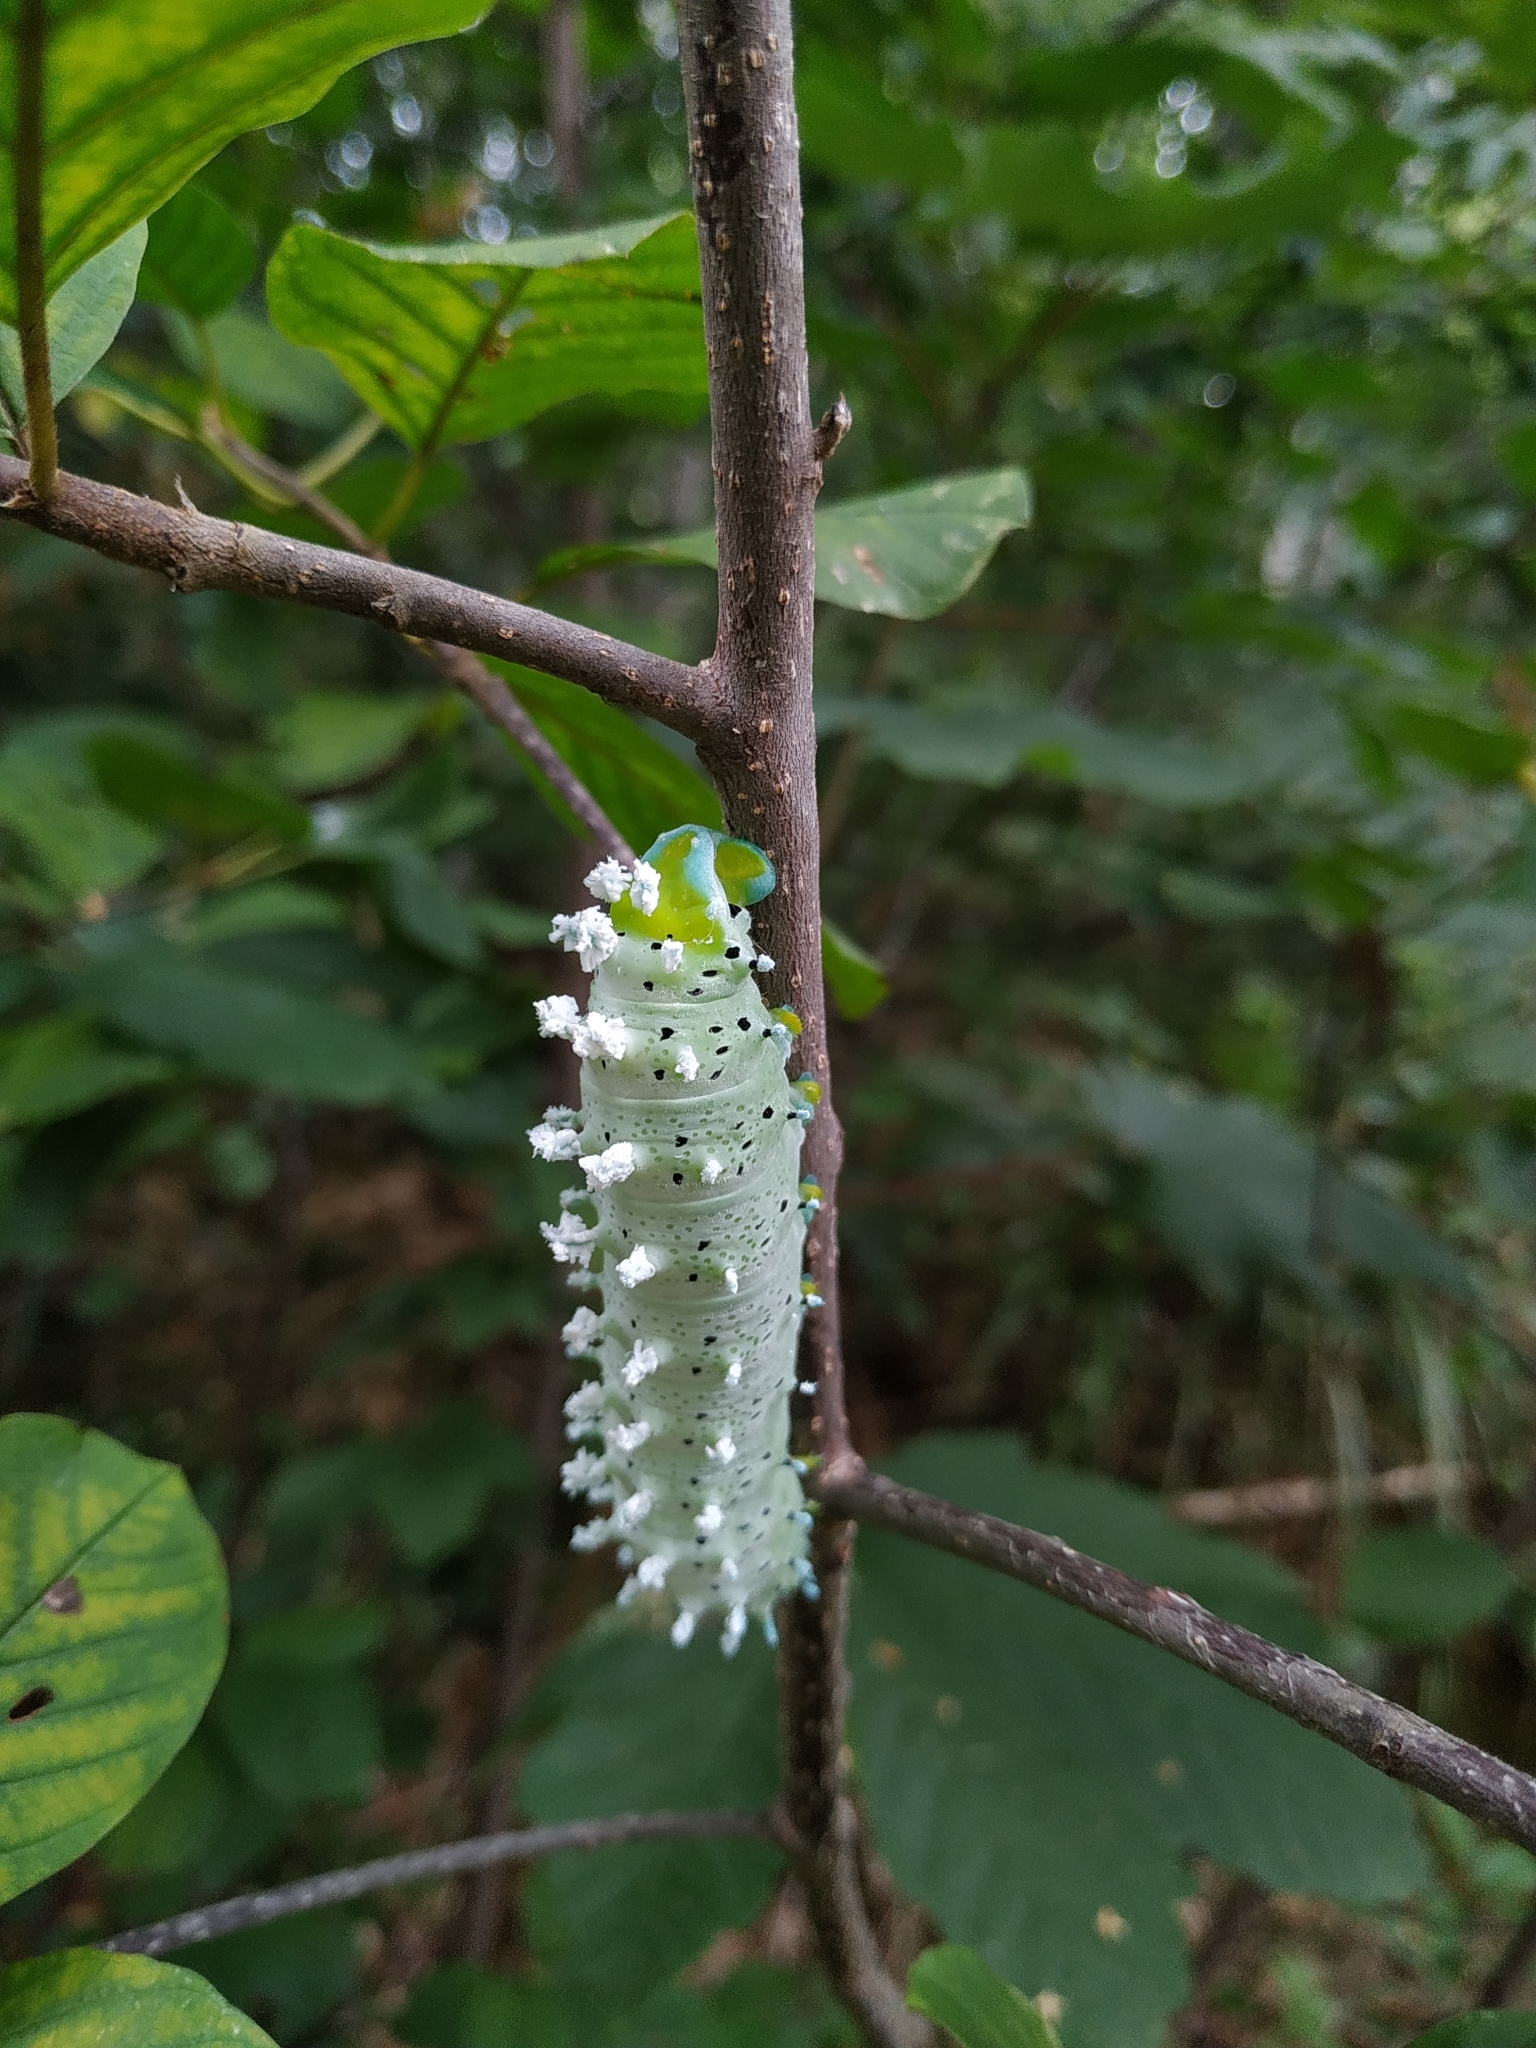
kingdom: Animalia
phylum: Arthropoda
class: Insecta
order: Lepidoptera
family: Saturniidae
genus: Samia
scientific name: Samia cynthia
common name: Ailanthus silkmoth
